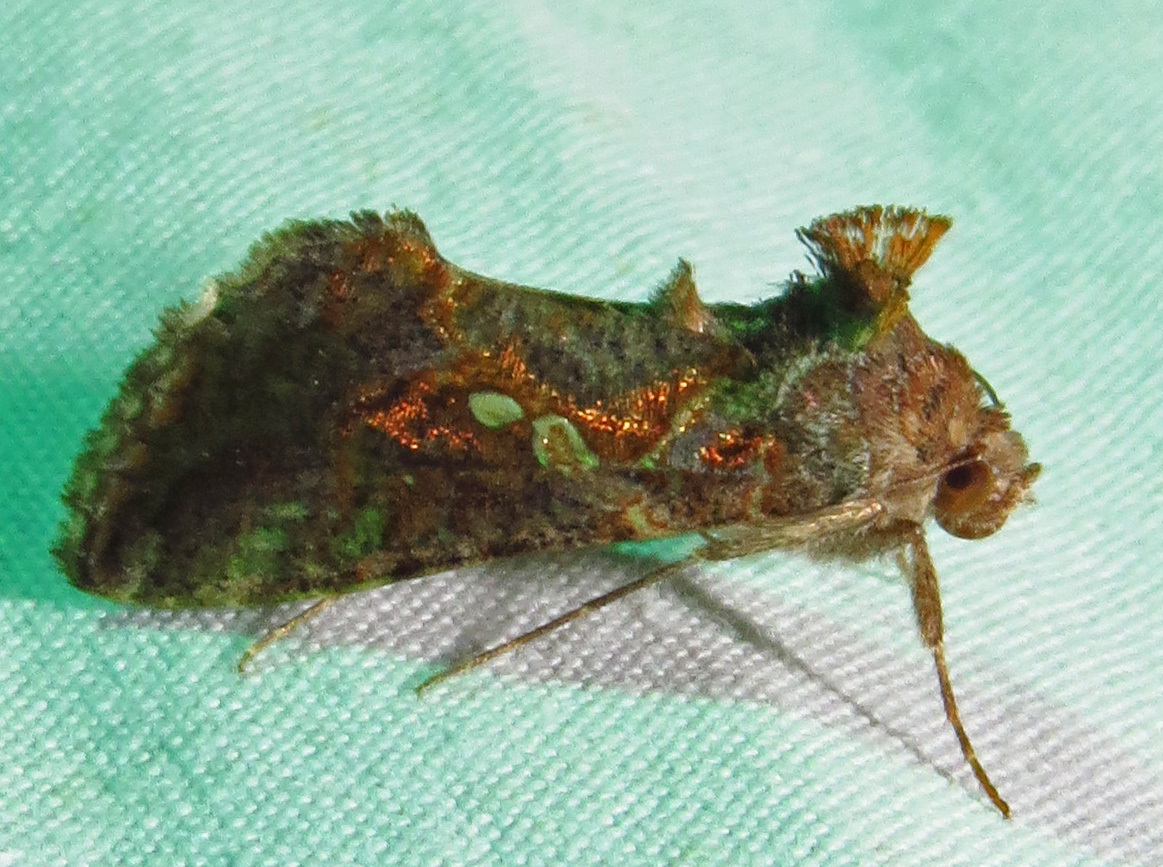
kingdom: Animalia
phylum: Arthropoda
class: Insecta
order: Lepidoptera
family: Noctuidae
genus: Chrysodeixis
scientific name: Chrysodeixis includens
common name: Cutworm moth
